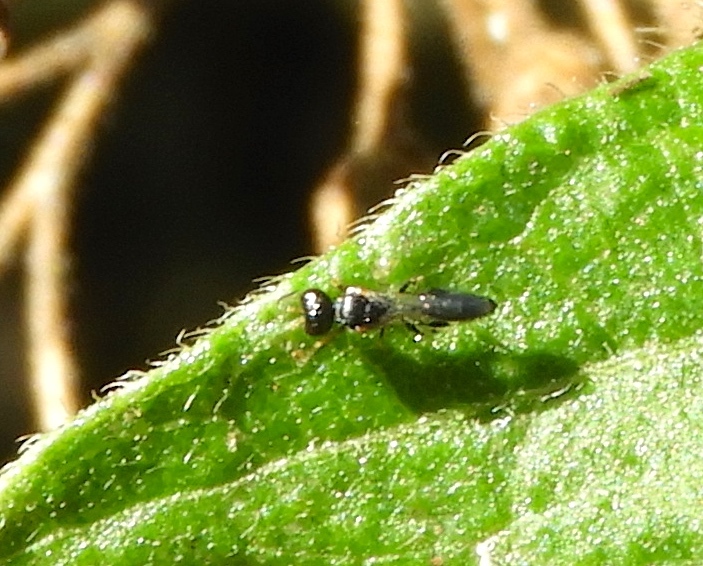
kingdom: Animalia
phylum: Arthropoda
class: Insecta
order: Hymenoptera
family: Crabronidae
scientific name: Crabronidae
